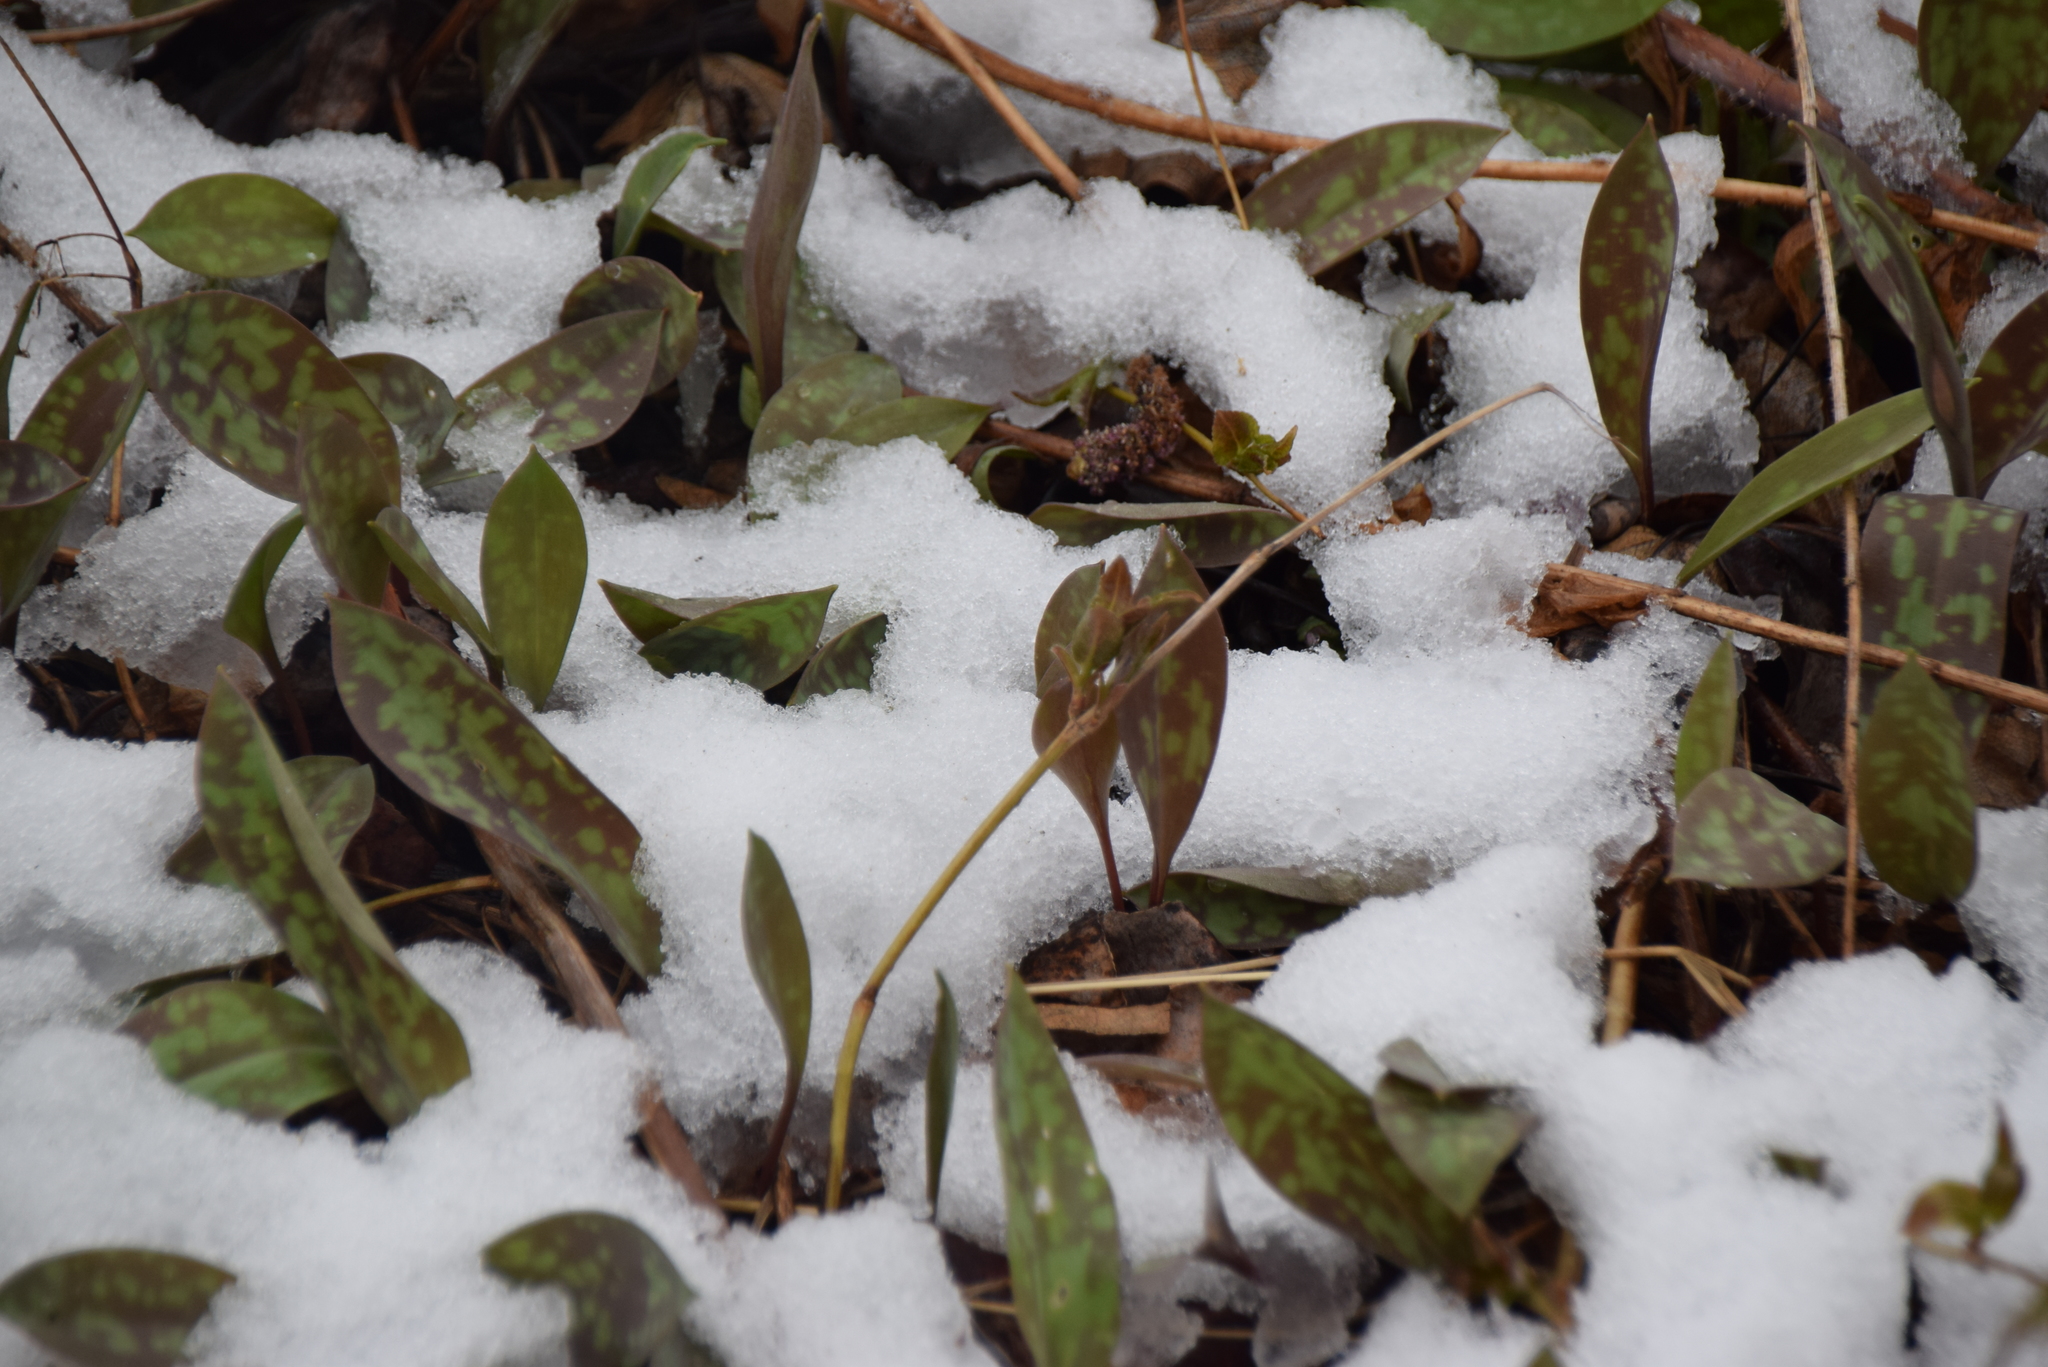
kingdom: Plantae
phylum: Tracheophyta
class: Liliopsida
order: Liliales
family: Liliaceae
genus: Erythronium
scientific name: Erythronium americanum
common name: Yellow adder's-tongue
